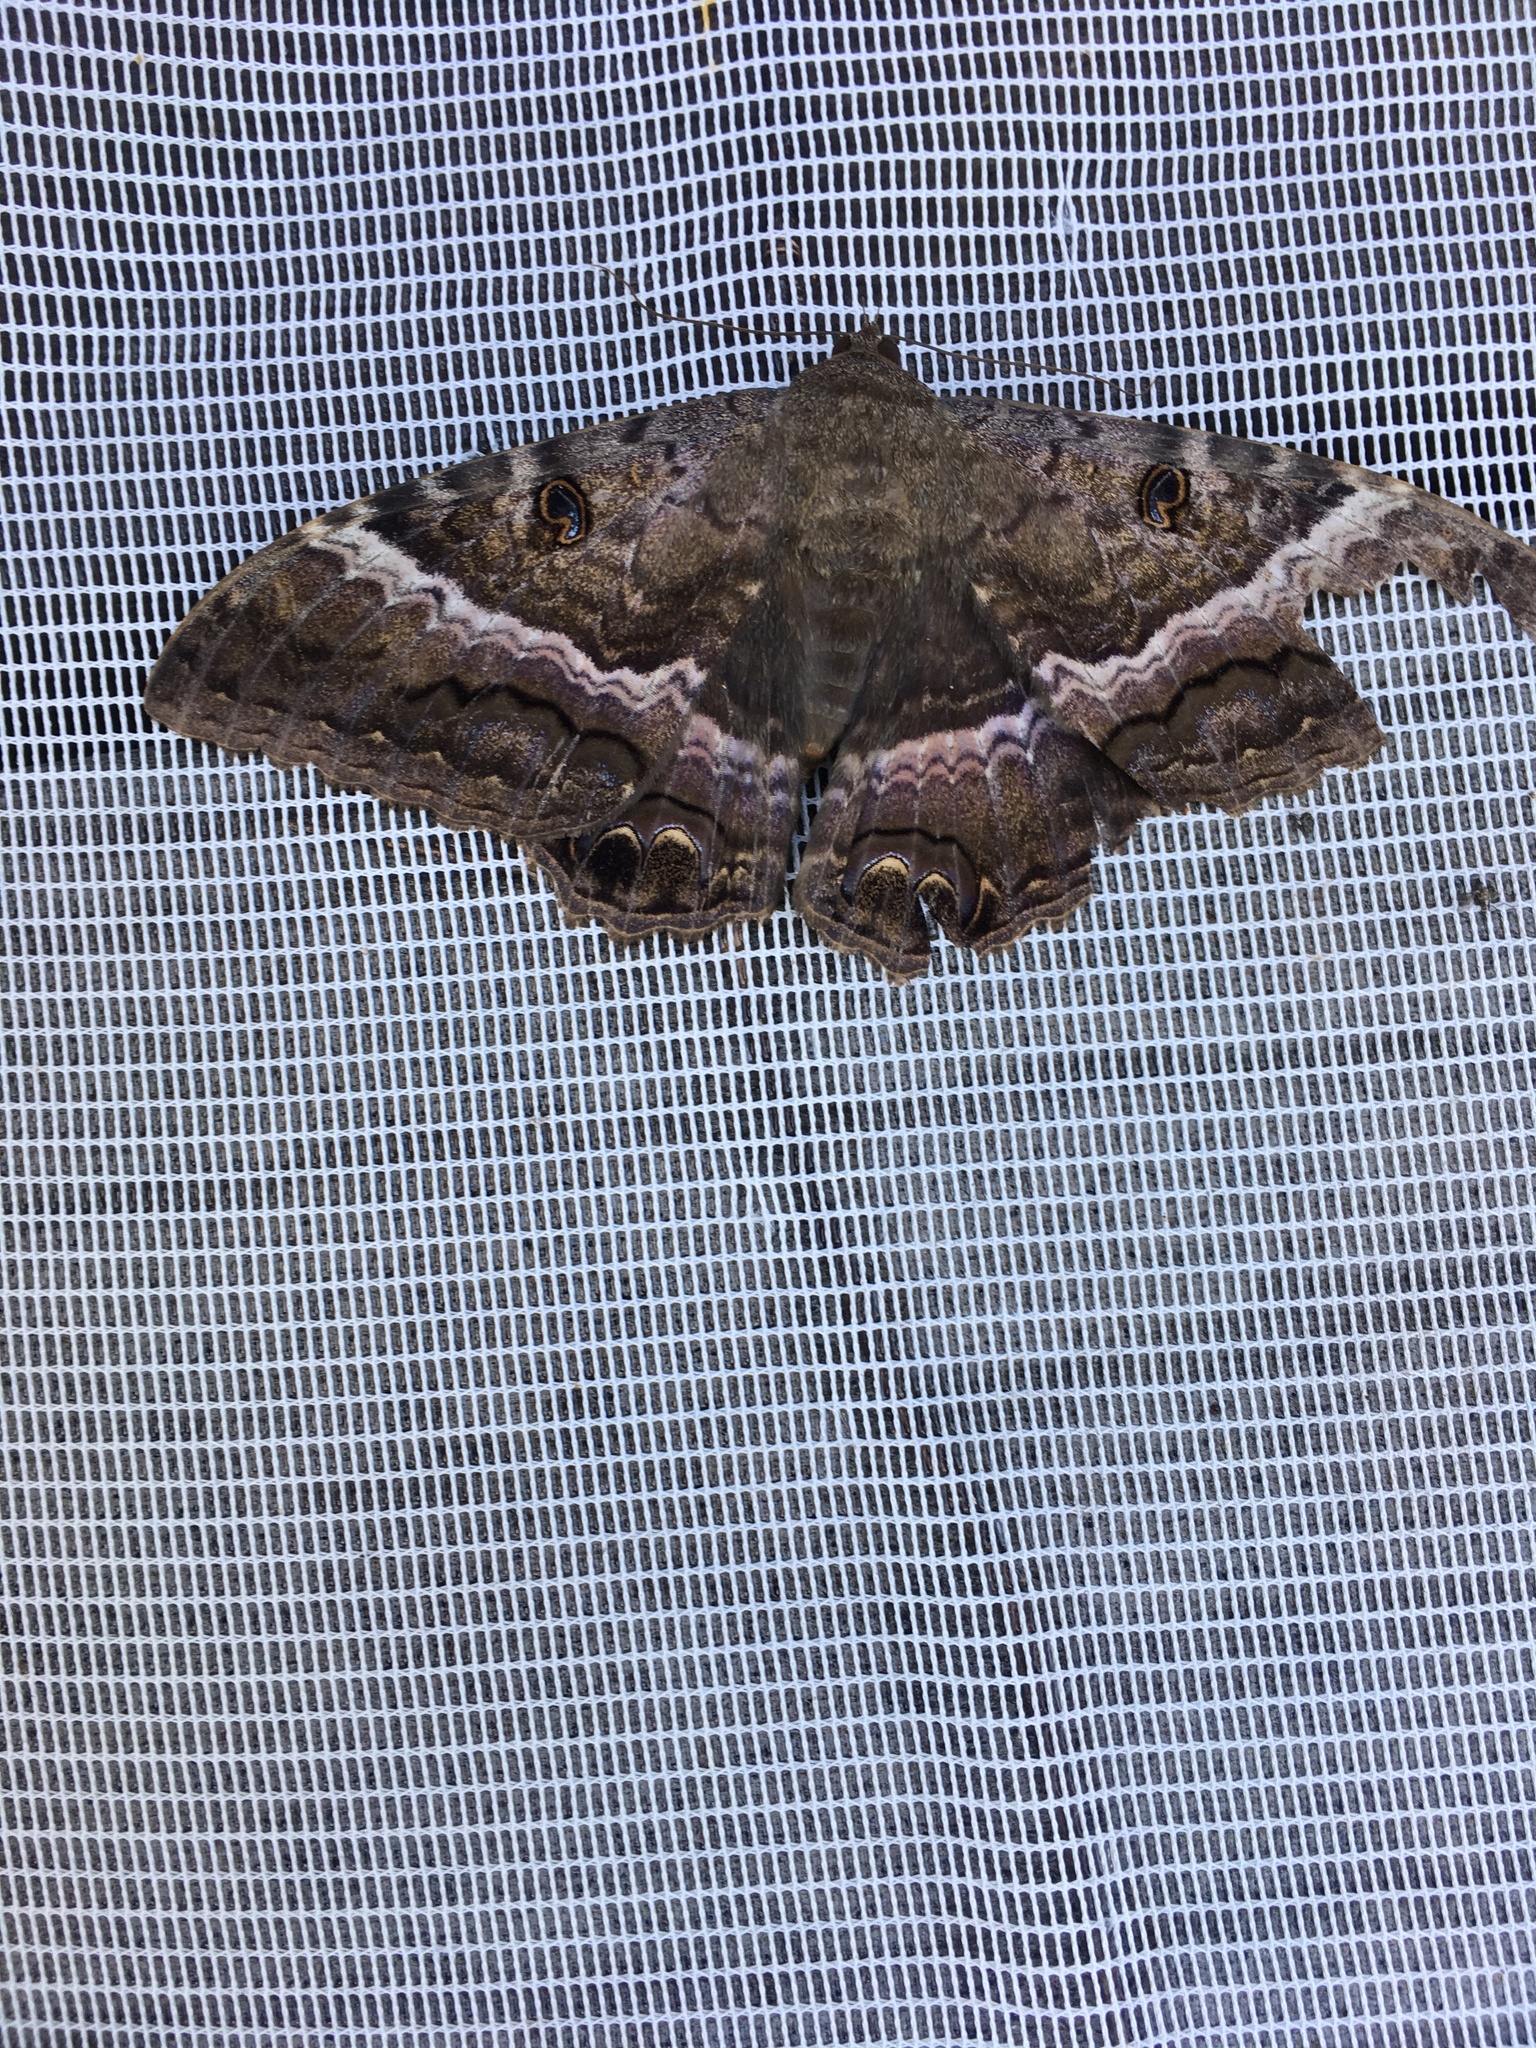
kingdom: Animalia
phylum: Arthropoda
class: Insecta
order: Lepidoptera
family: Erebidae
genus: Ascalapha
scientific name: Ascalapha odorata
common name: Black witch
